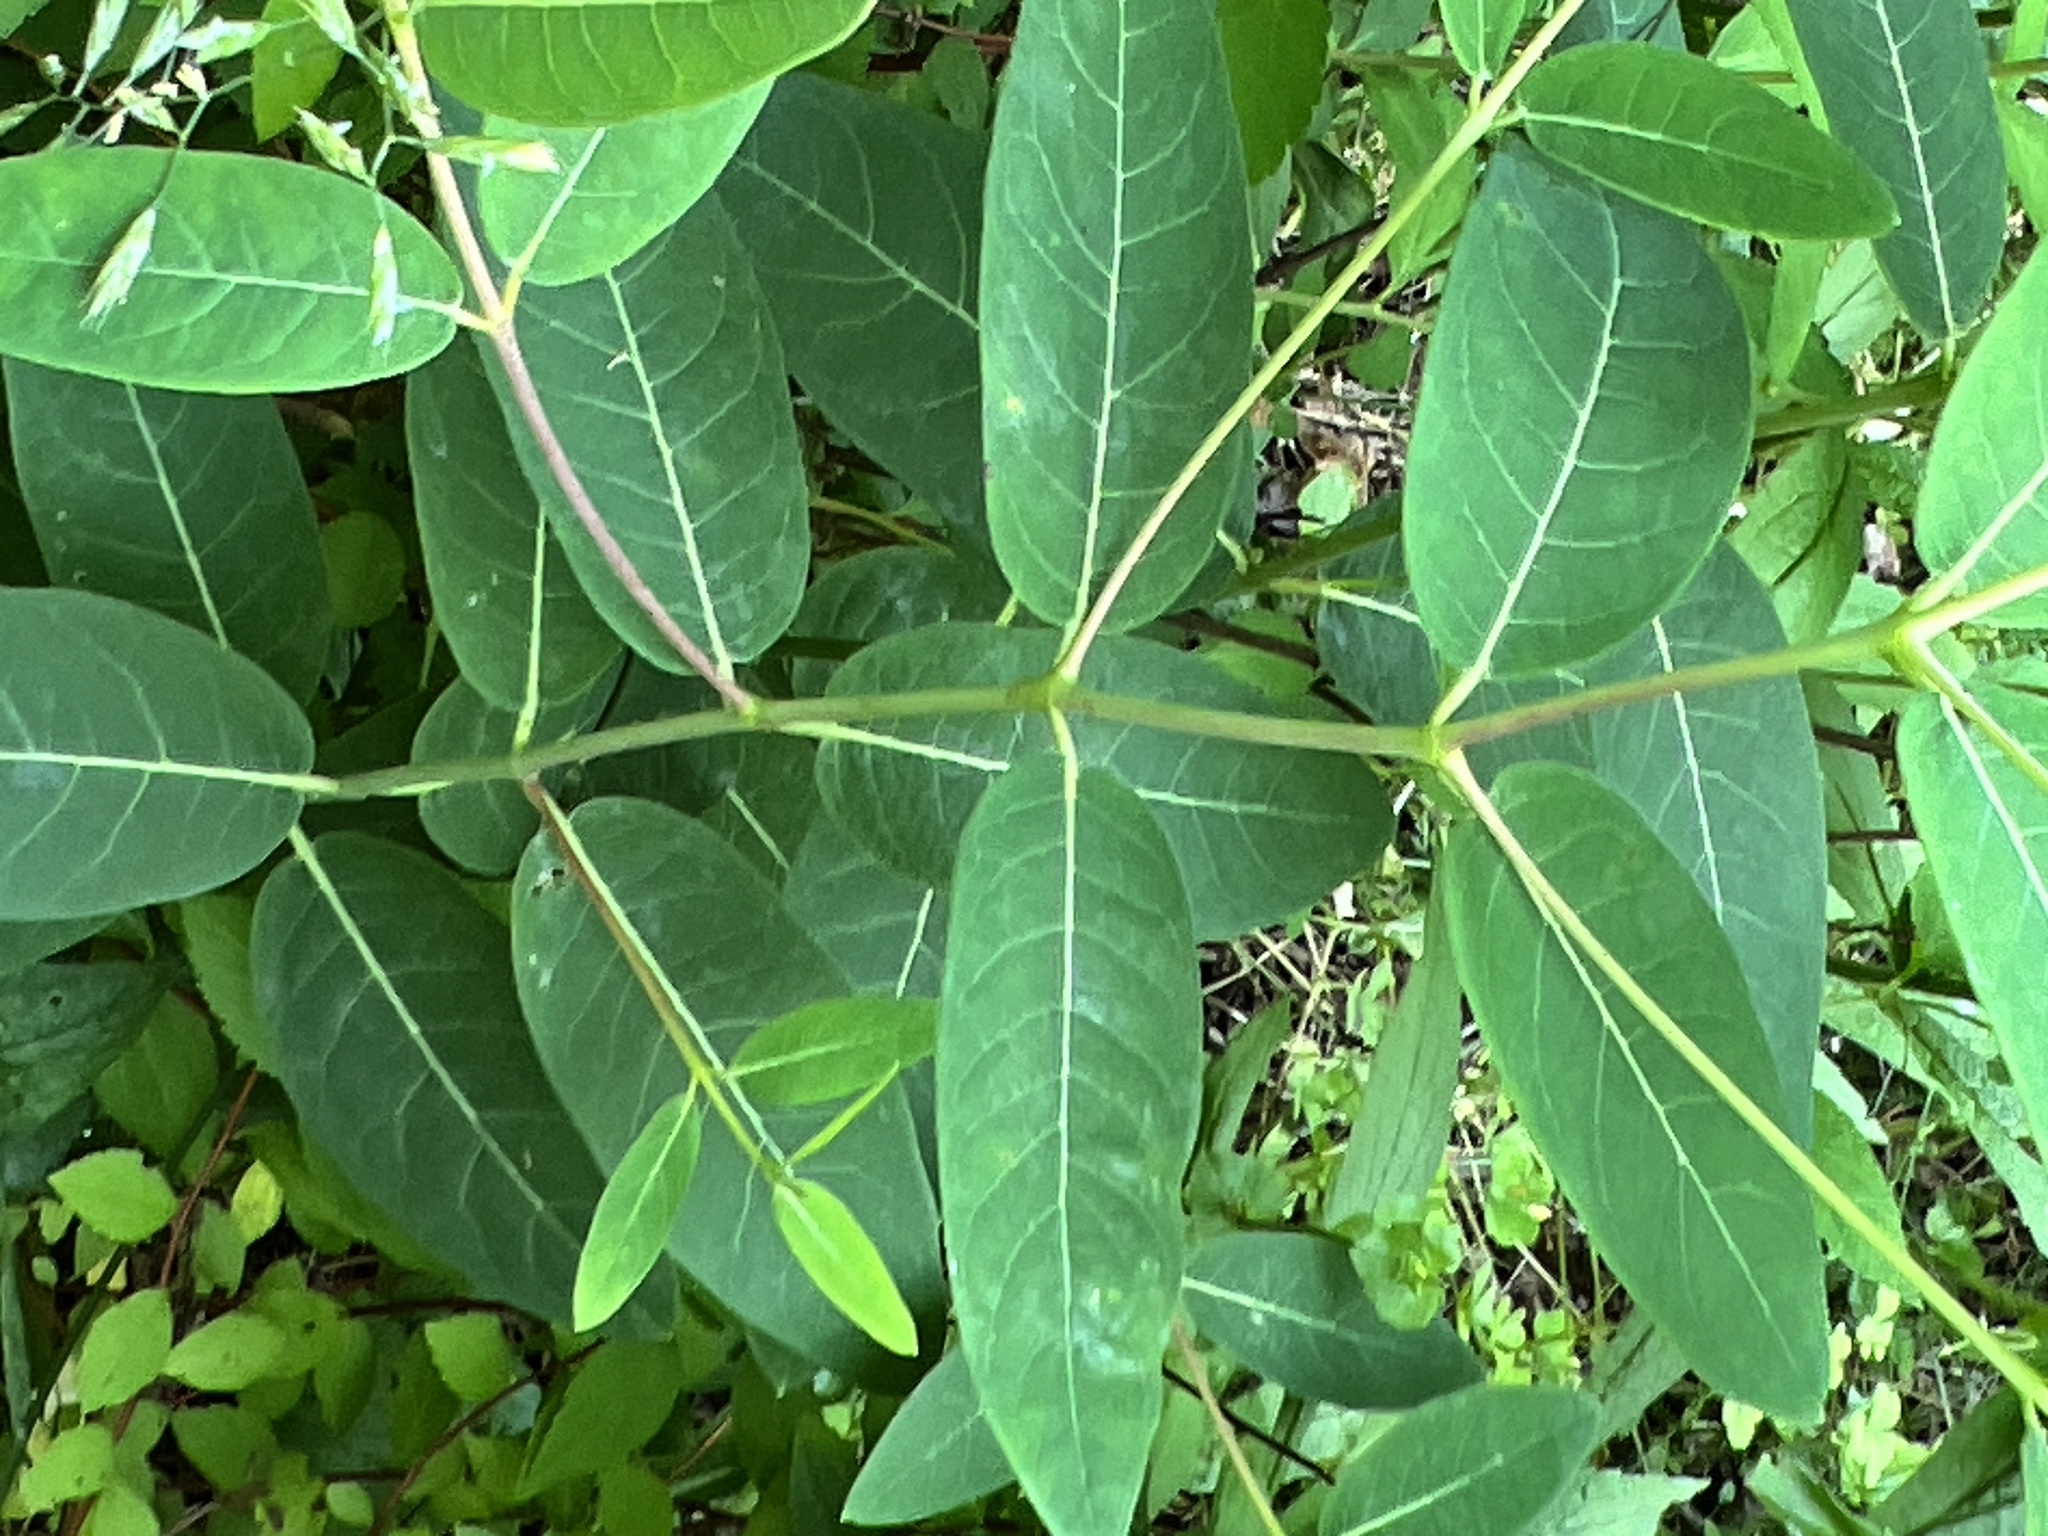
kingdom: Plantae
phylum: Tracheophyta
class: Magnoliopsida
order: Gentianales
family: Apocynaceae
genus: Apocynum
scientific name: Apocynum cannabinum
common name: Hemp dogbane
